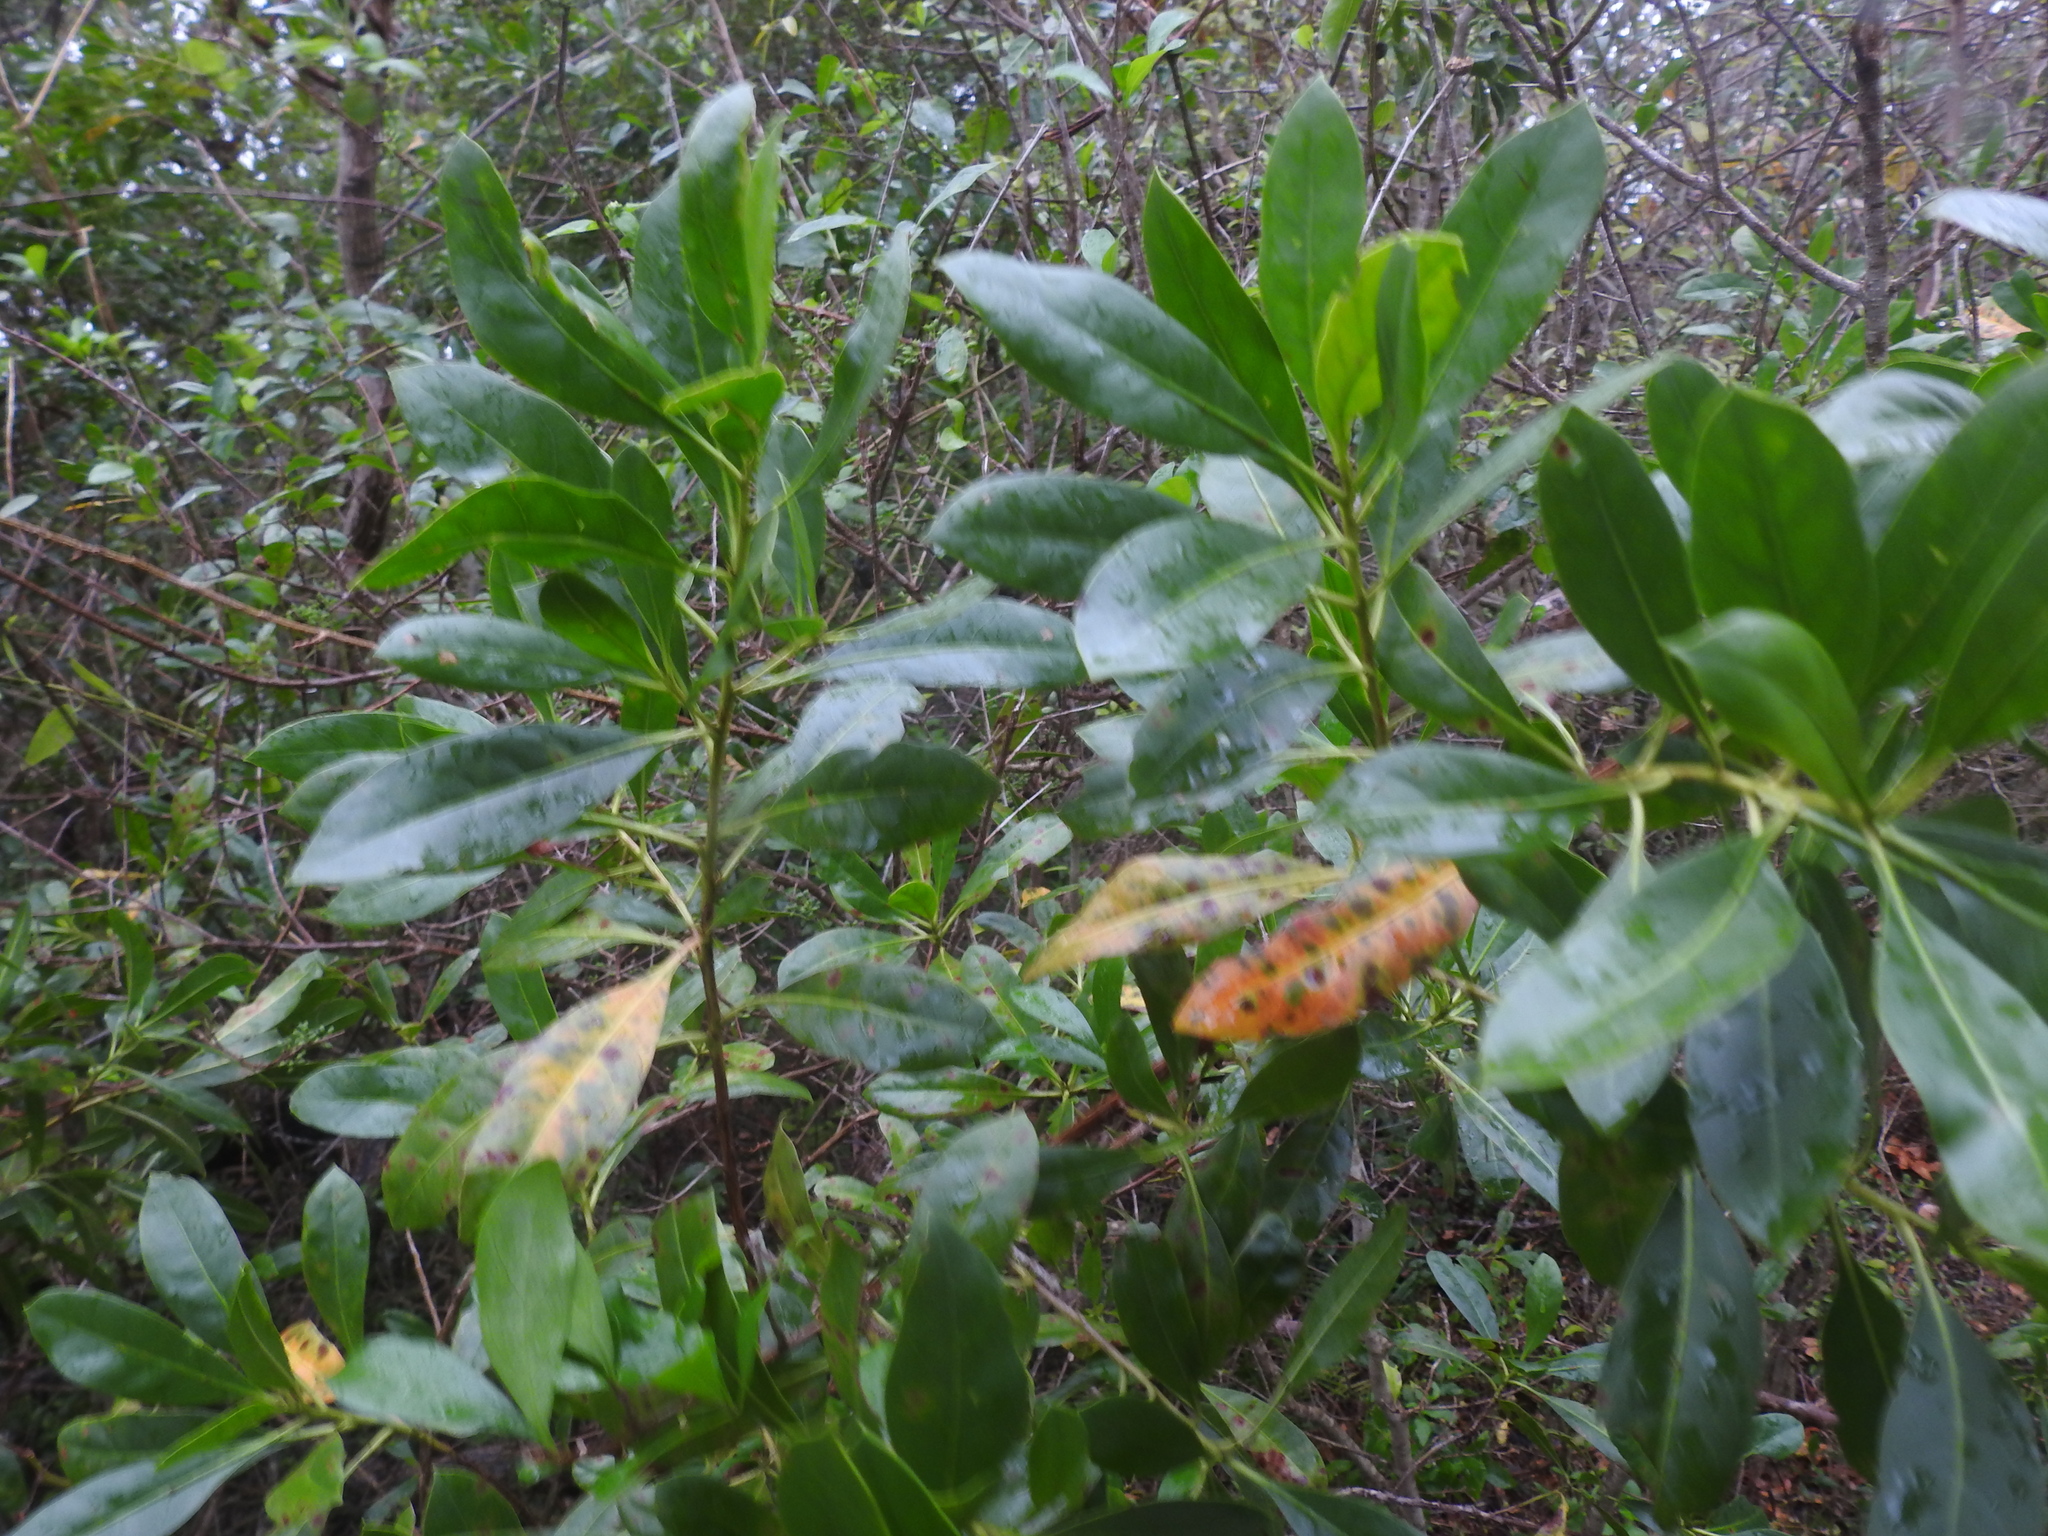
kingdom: Plantae
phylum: Tracheophyta
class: Magnoliopsida
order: Myrtales
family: Combretaceae
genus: Conocarpus
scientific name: Conocarpus erectus
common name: Button mangrove
